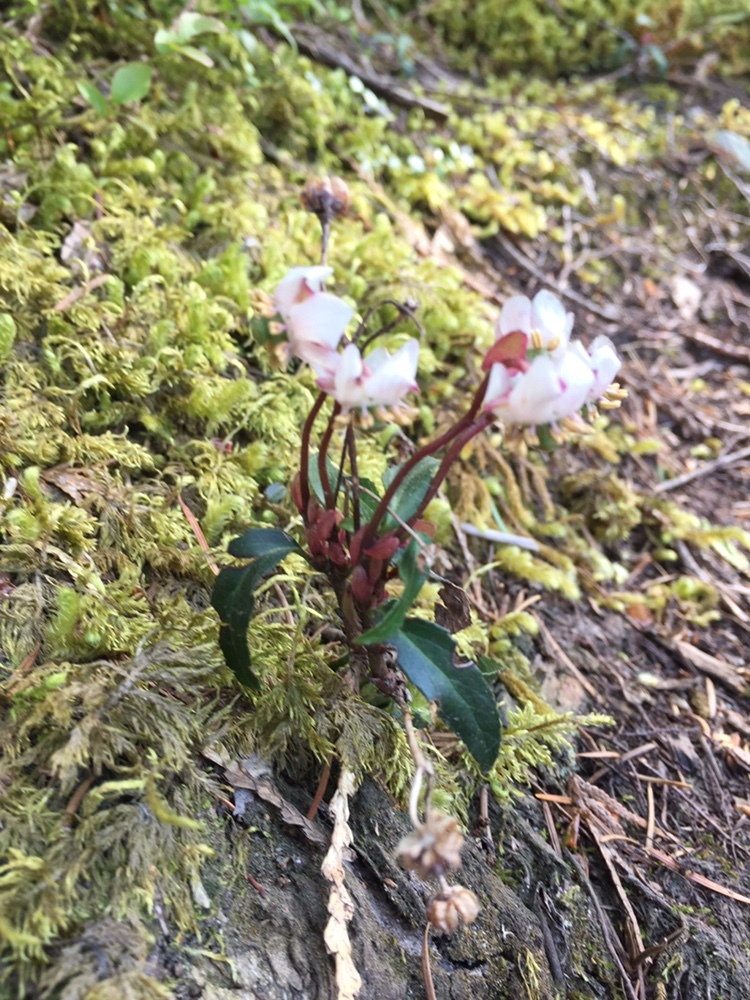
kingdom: Plantae
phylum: Tracheophyta
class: Magnoliopsida
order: Ericales
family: Ericaceae
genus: Chimaphila
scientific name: Chimaphila menziesii
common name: Menzies' pipsissewa
